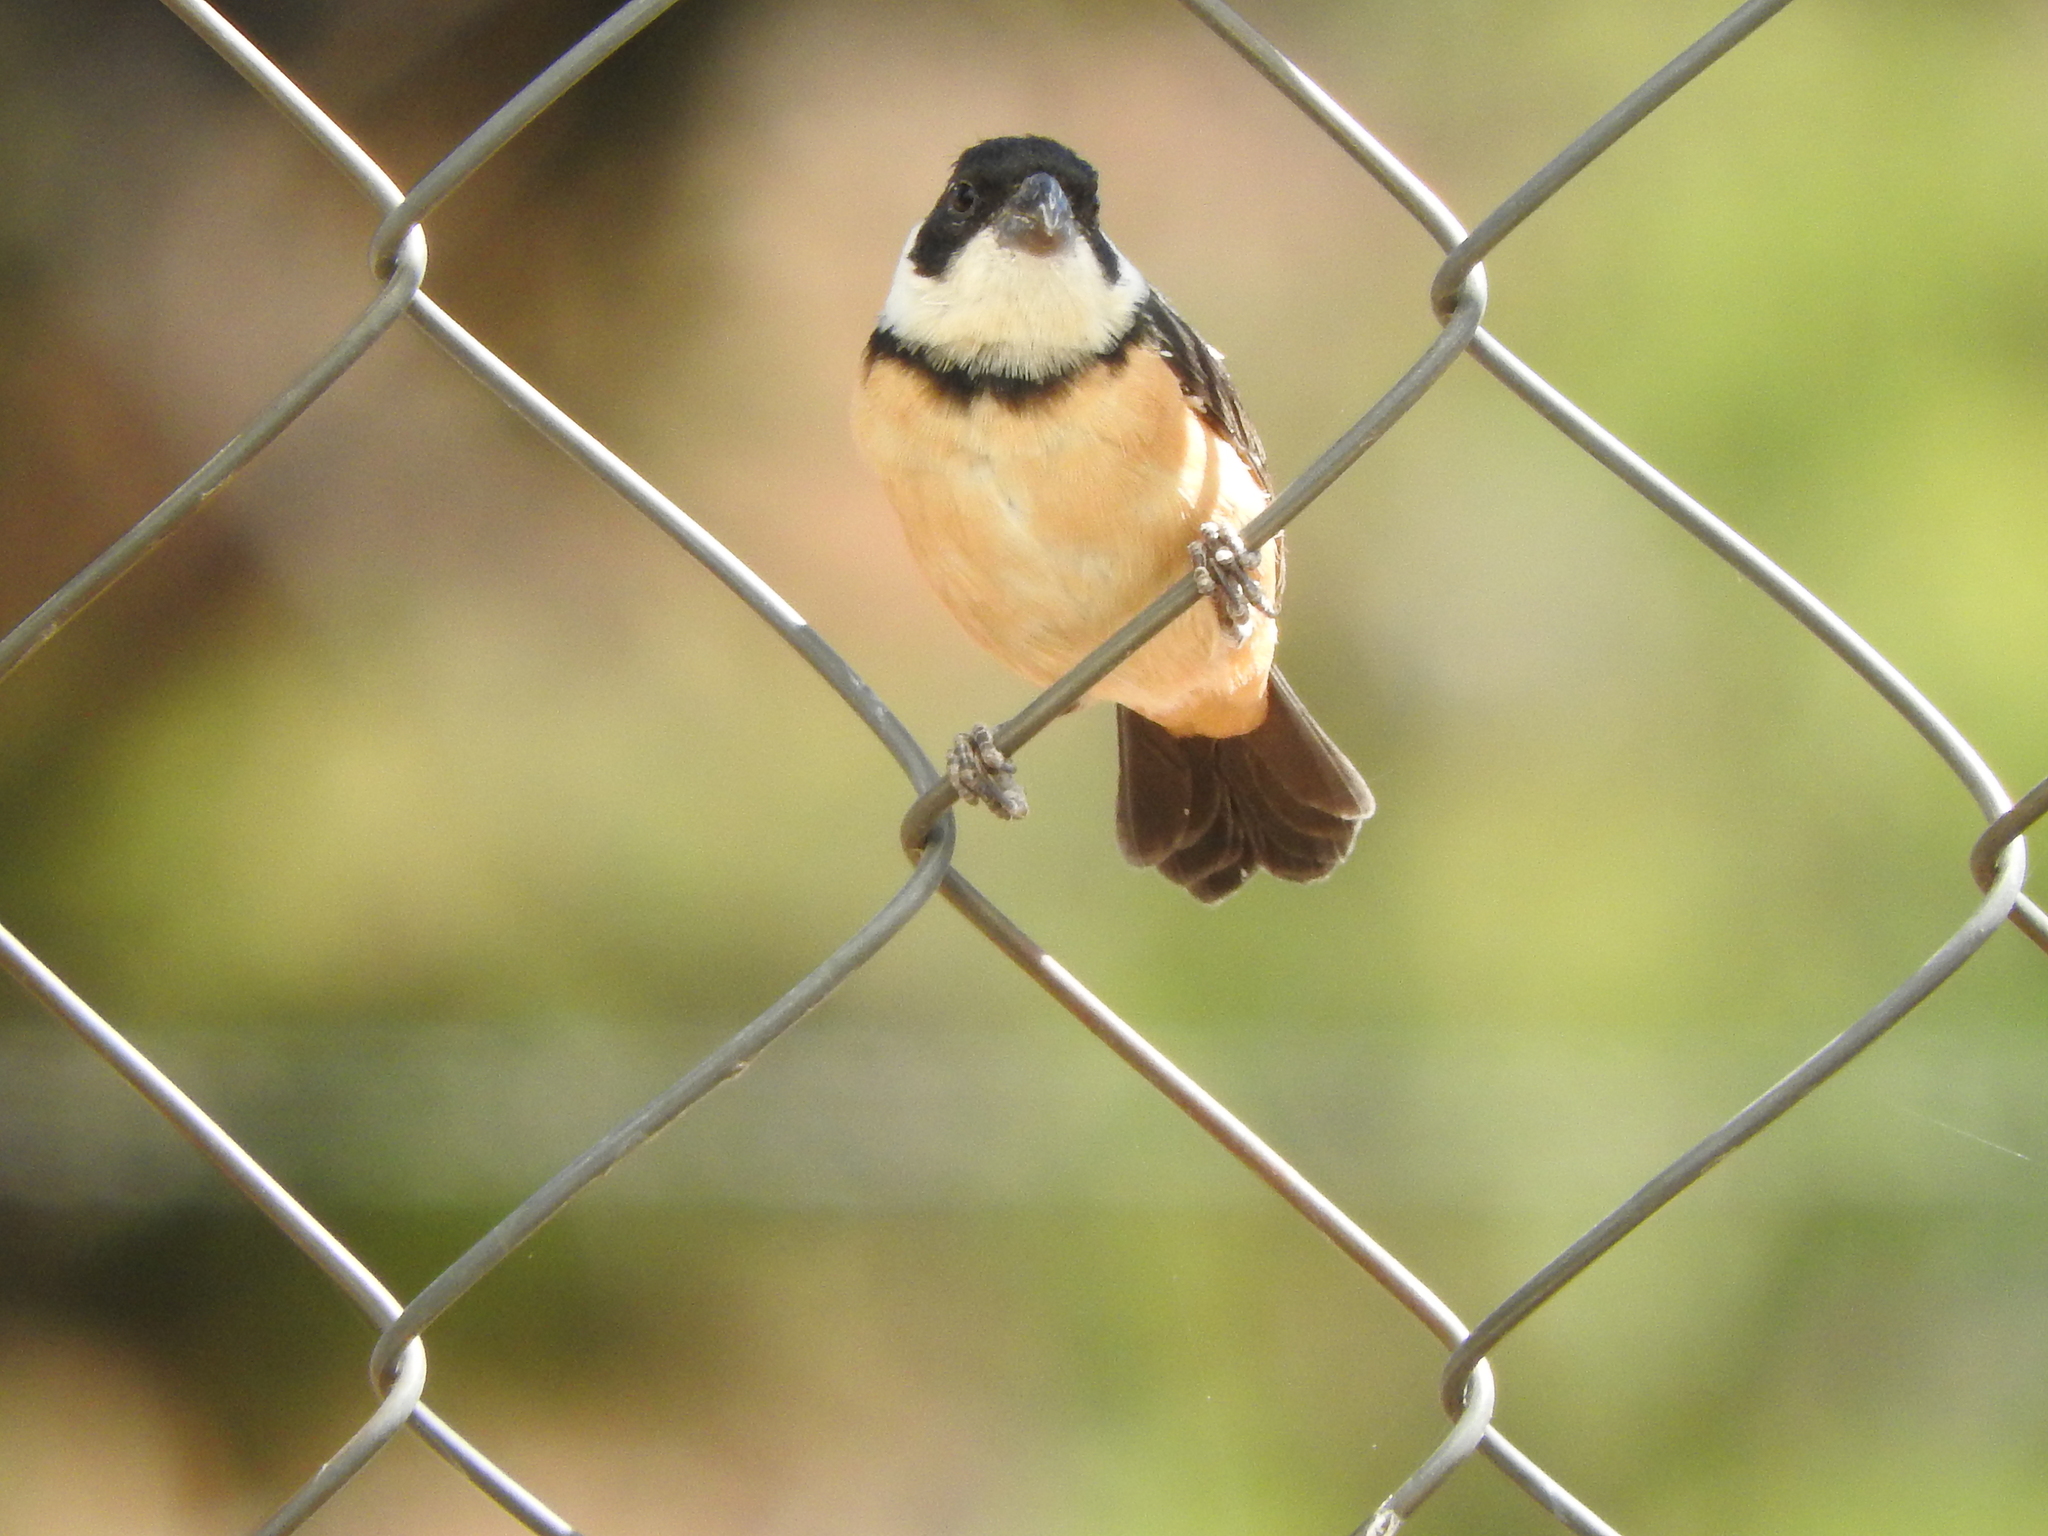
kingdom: Animalia
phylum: Chordata
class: Aves
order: Passeriformes
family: Thraupidae
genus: Sporophila
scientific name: Sporophila torqueola
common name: White-collared seedeater
